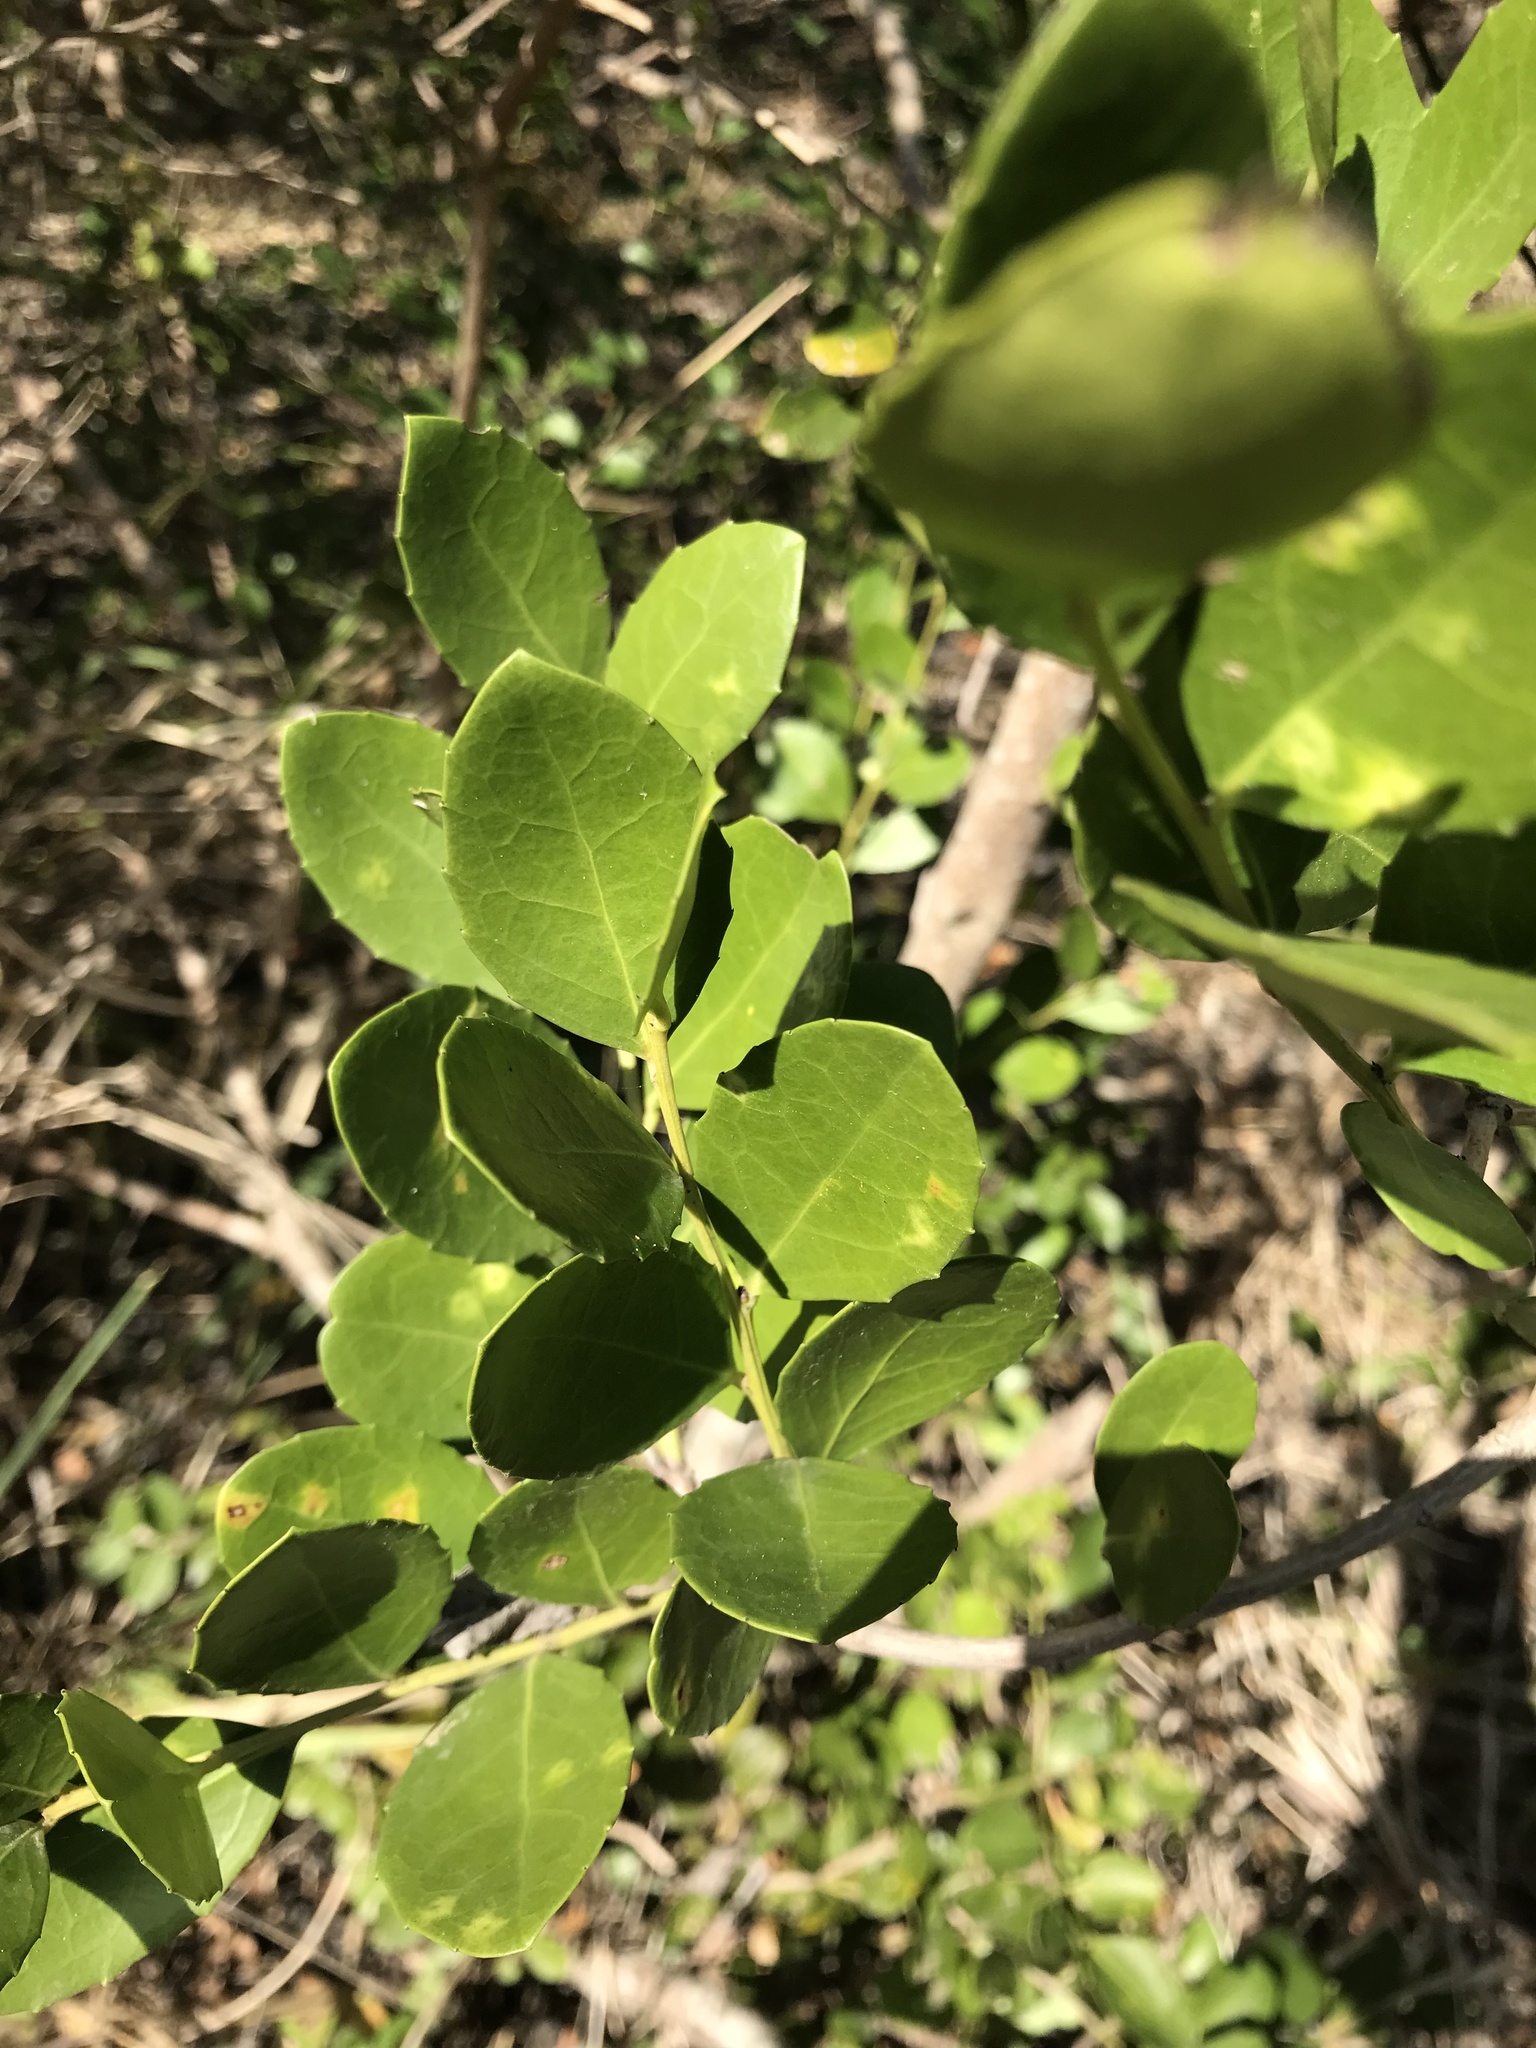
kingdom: Plantae
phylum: Tracheophyta
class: Magnoliopsida
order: Celastrales
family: Celastraceae
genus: Gymnosporia
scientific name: Gymnosporia procumbens
